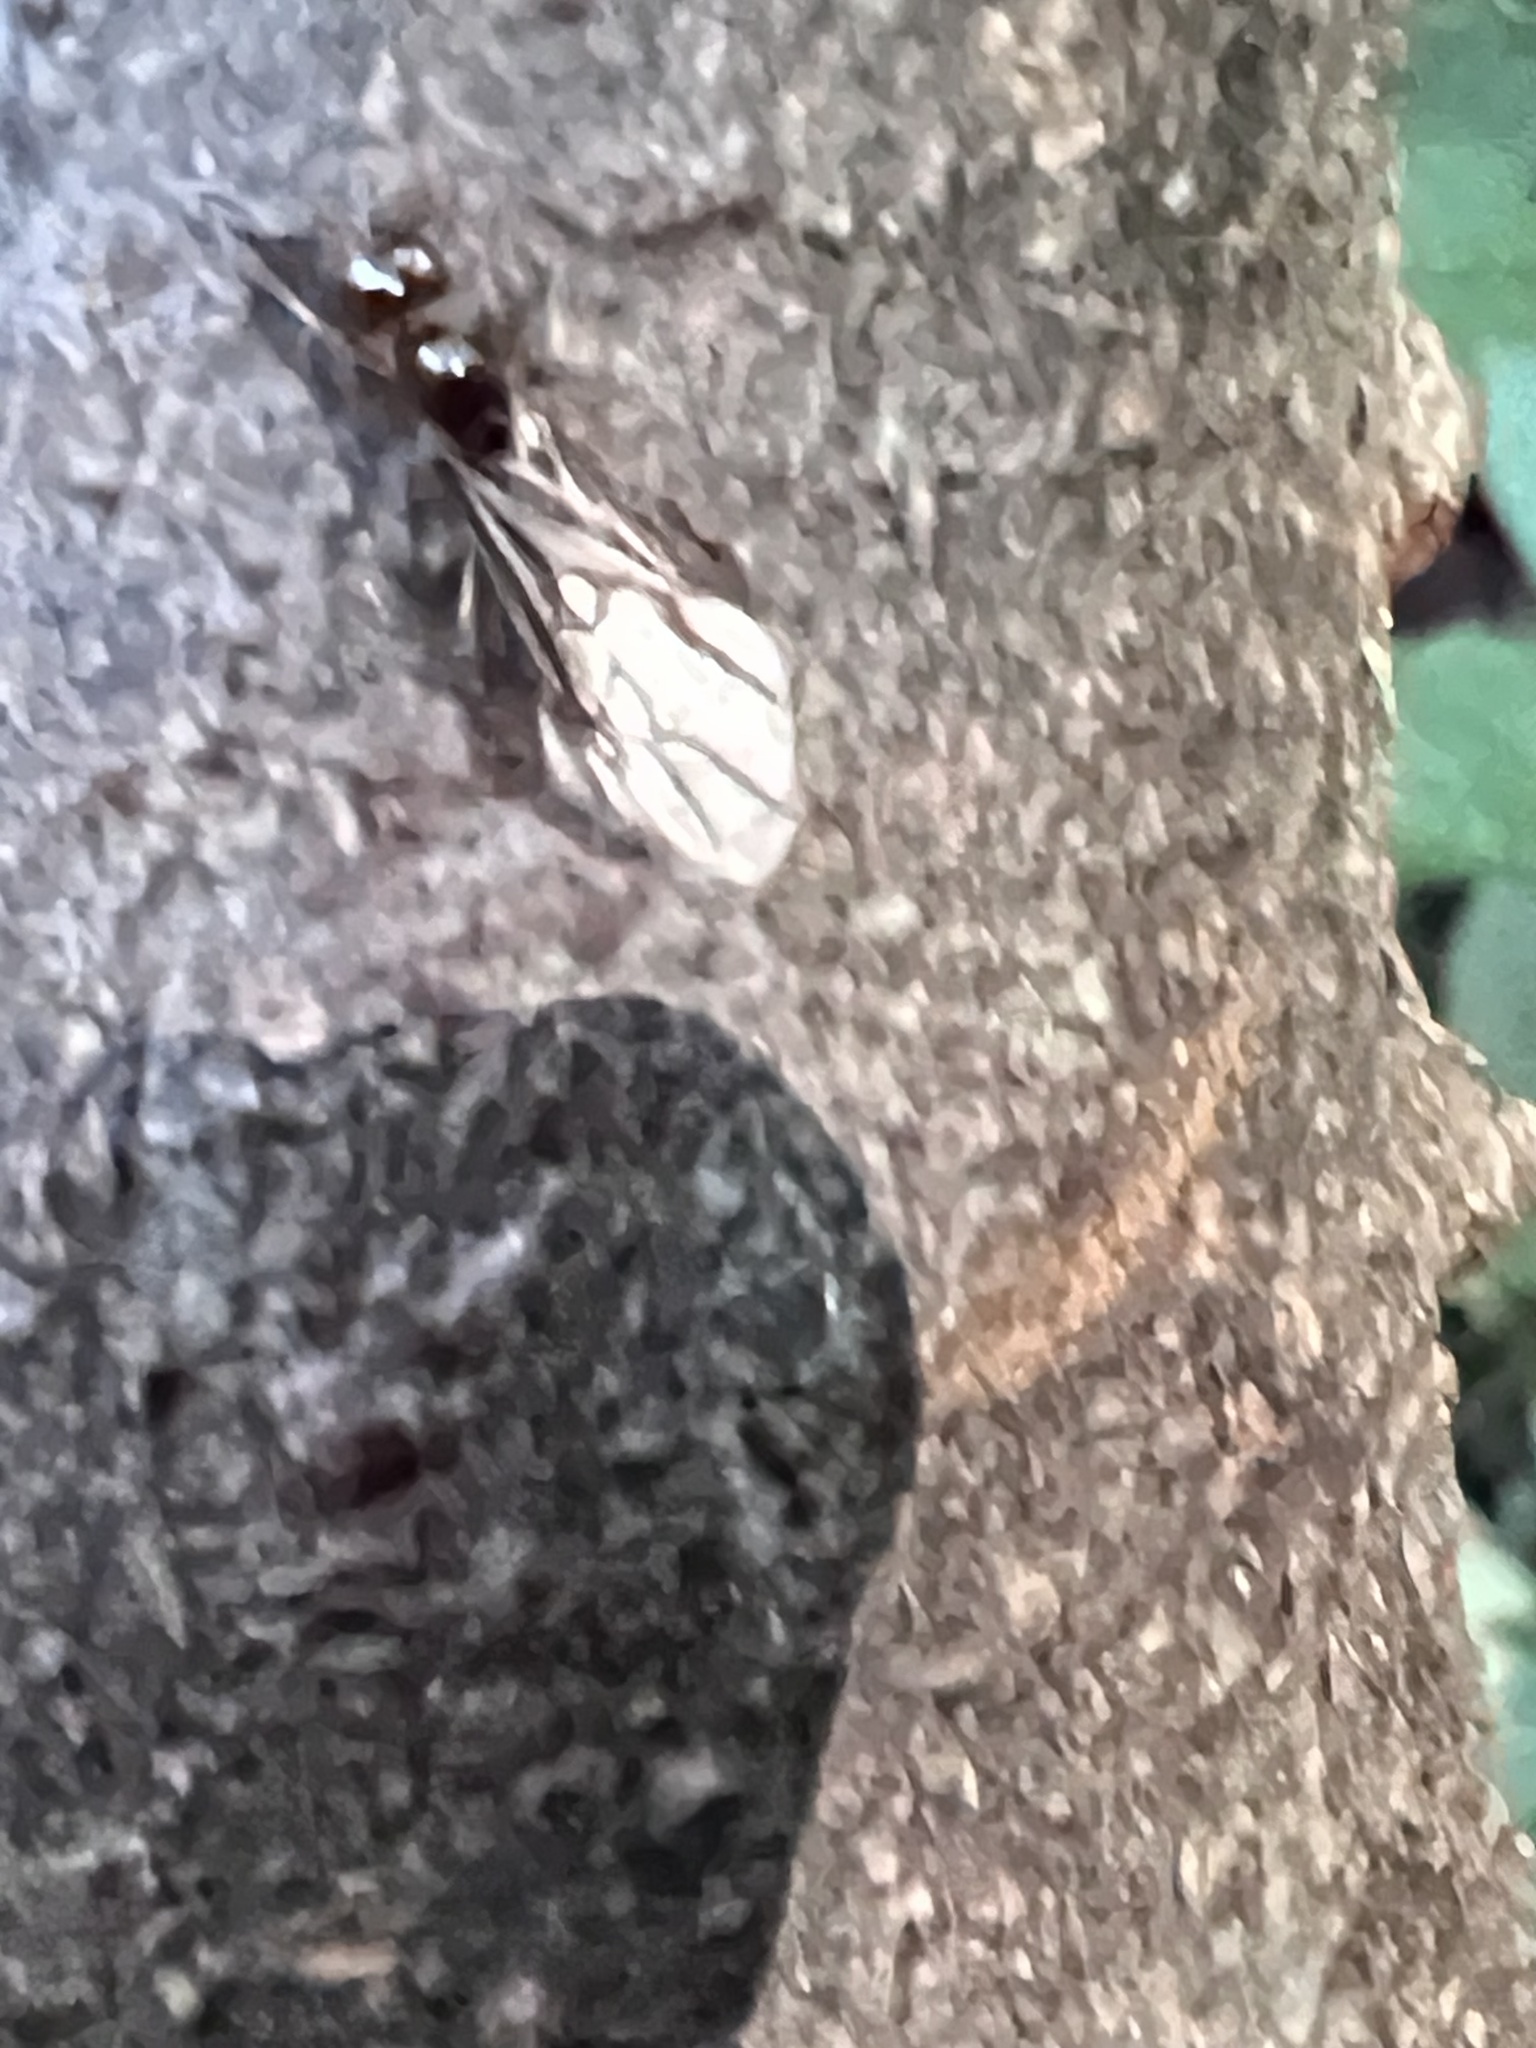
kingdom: Animalia
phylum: Arthropoda
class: Insecta
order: Hymenoptera
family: Formicidae
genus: Lasius
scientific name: Lasius claviger
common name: Common citronella ant
